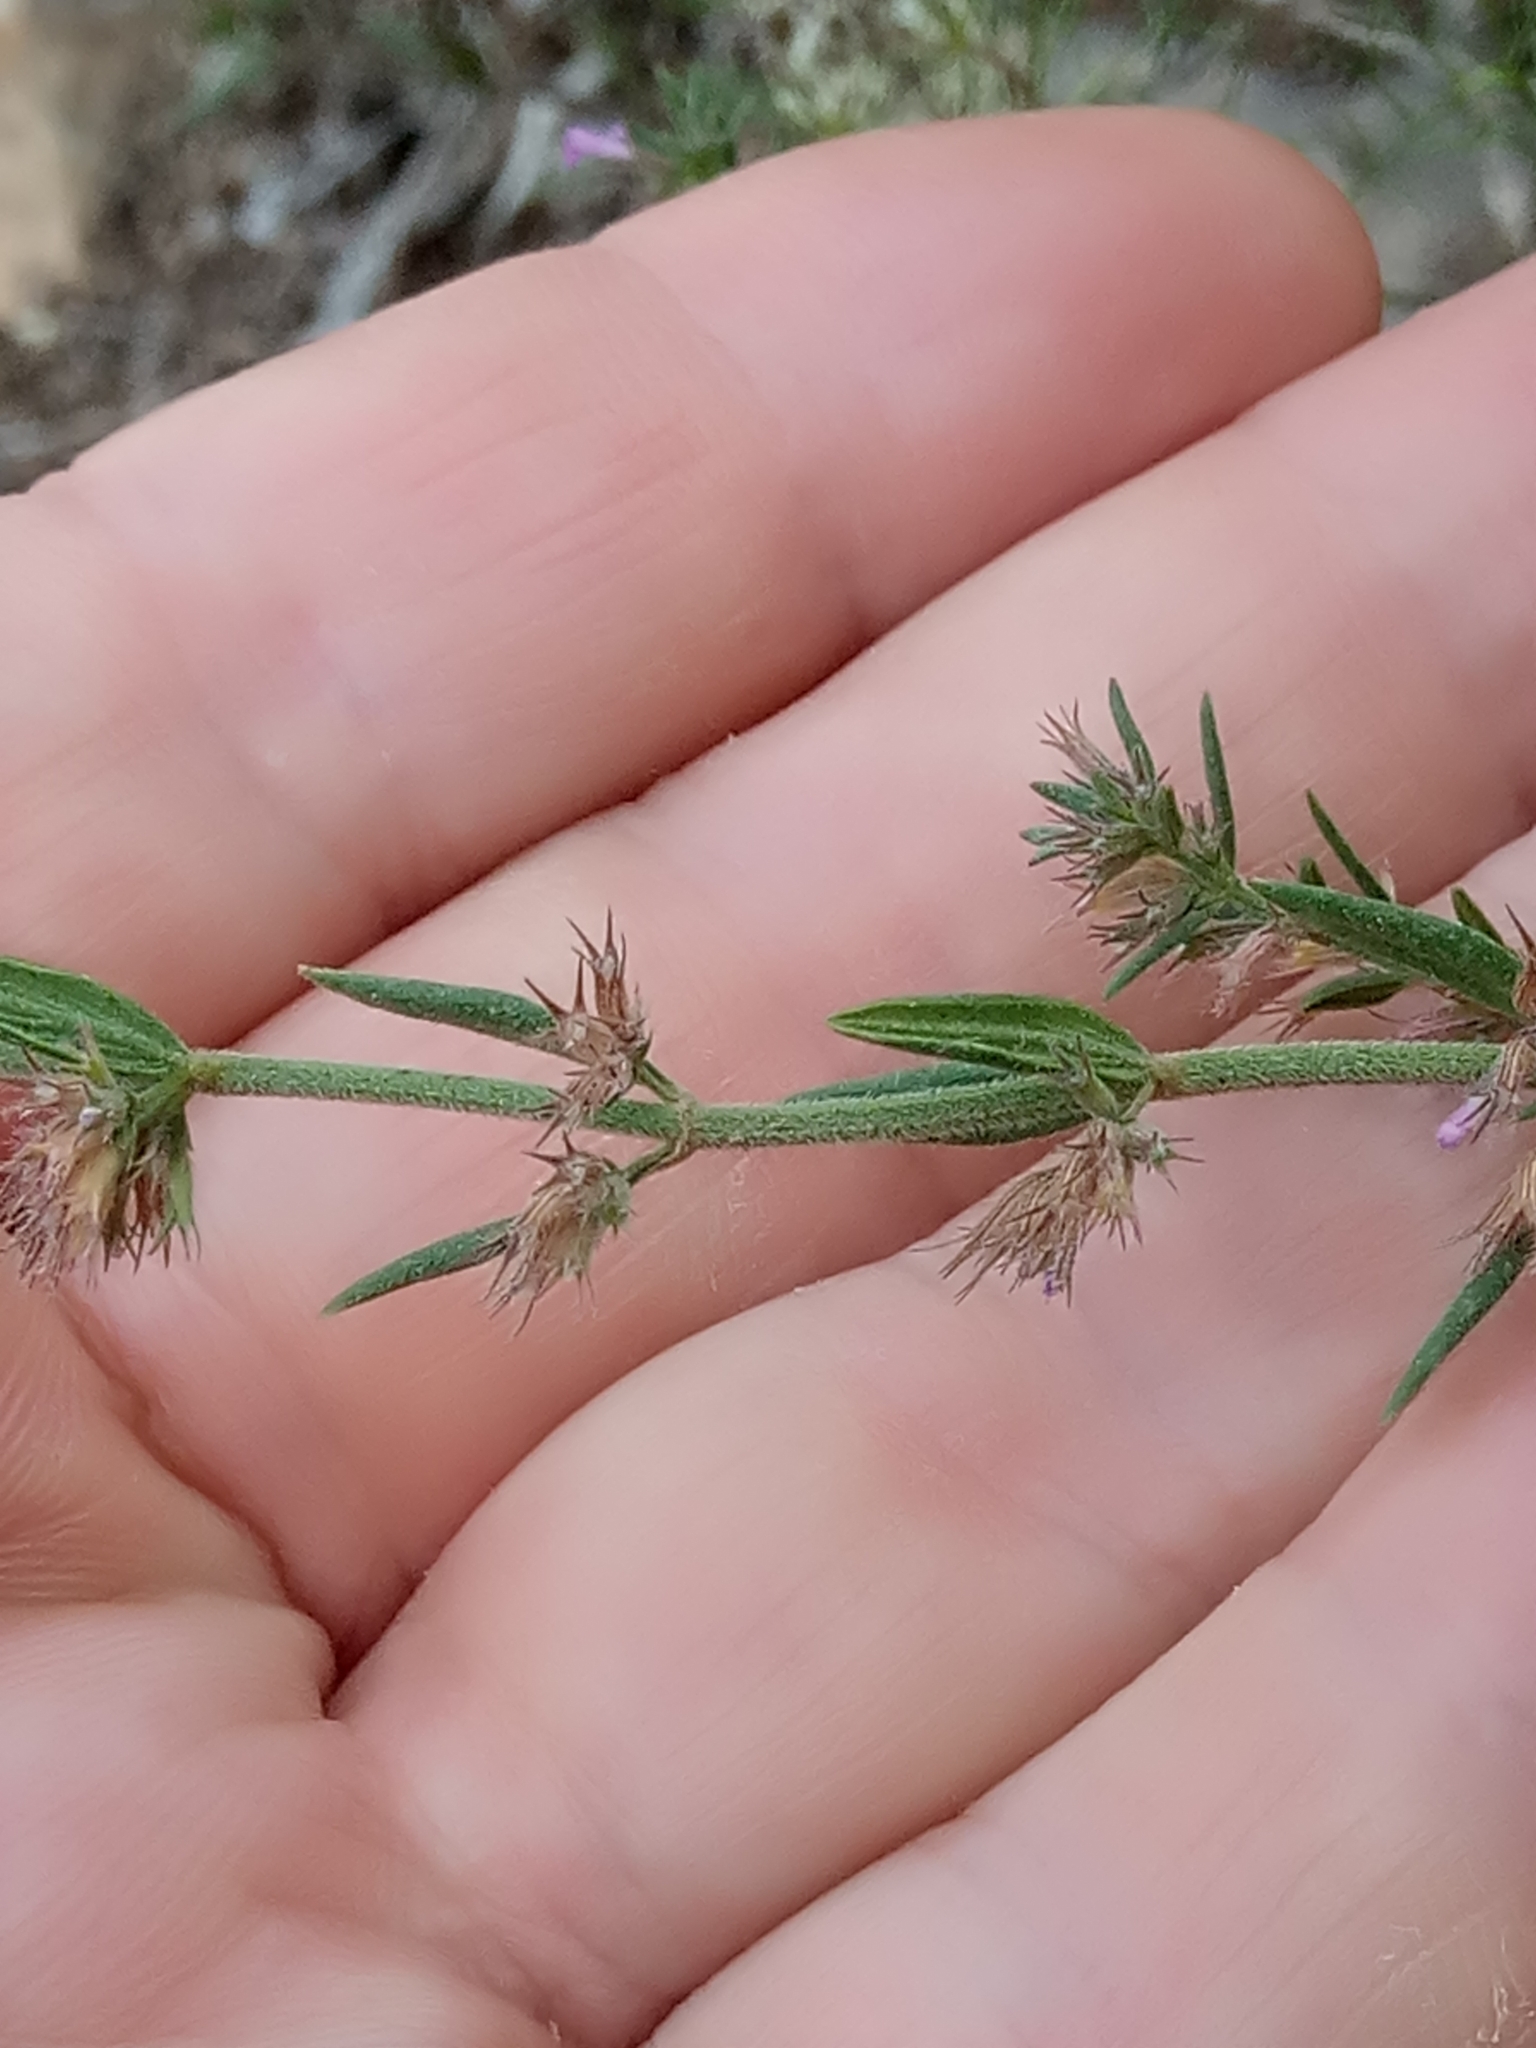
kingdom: Plantae
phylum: Tracheophyta
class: Magnoliopsida
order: Solanales
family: Convolvulaceae
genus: Convolvulus
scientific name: Convolvulus sabatius
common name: Ground blue-convolvulus
